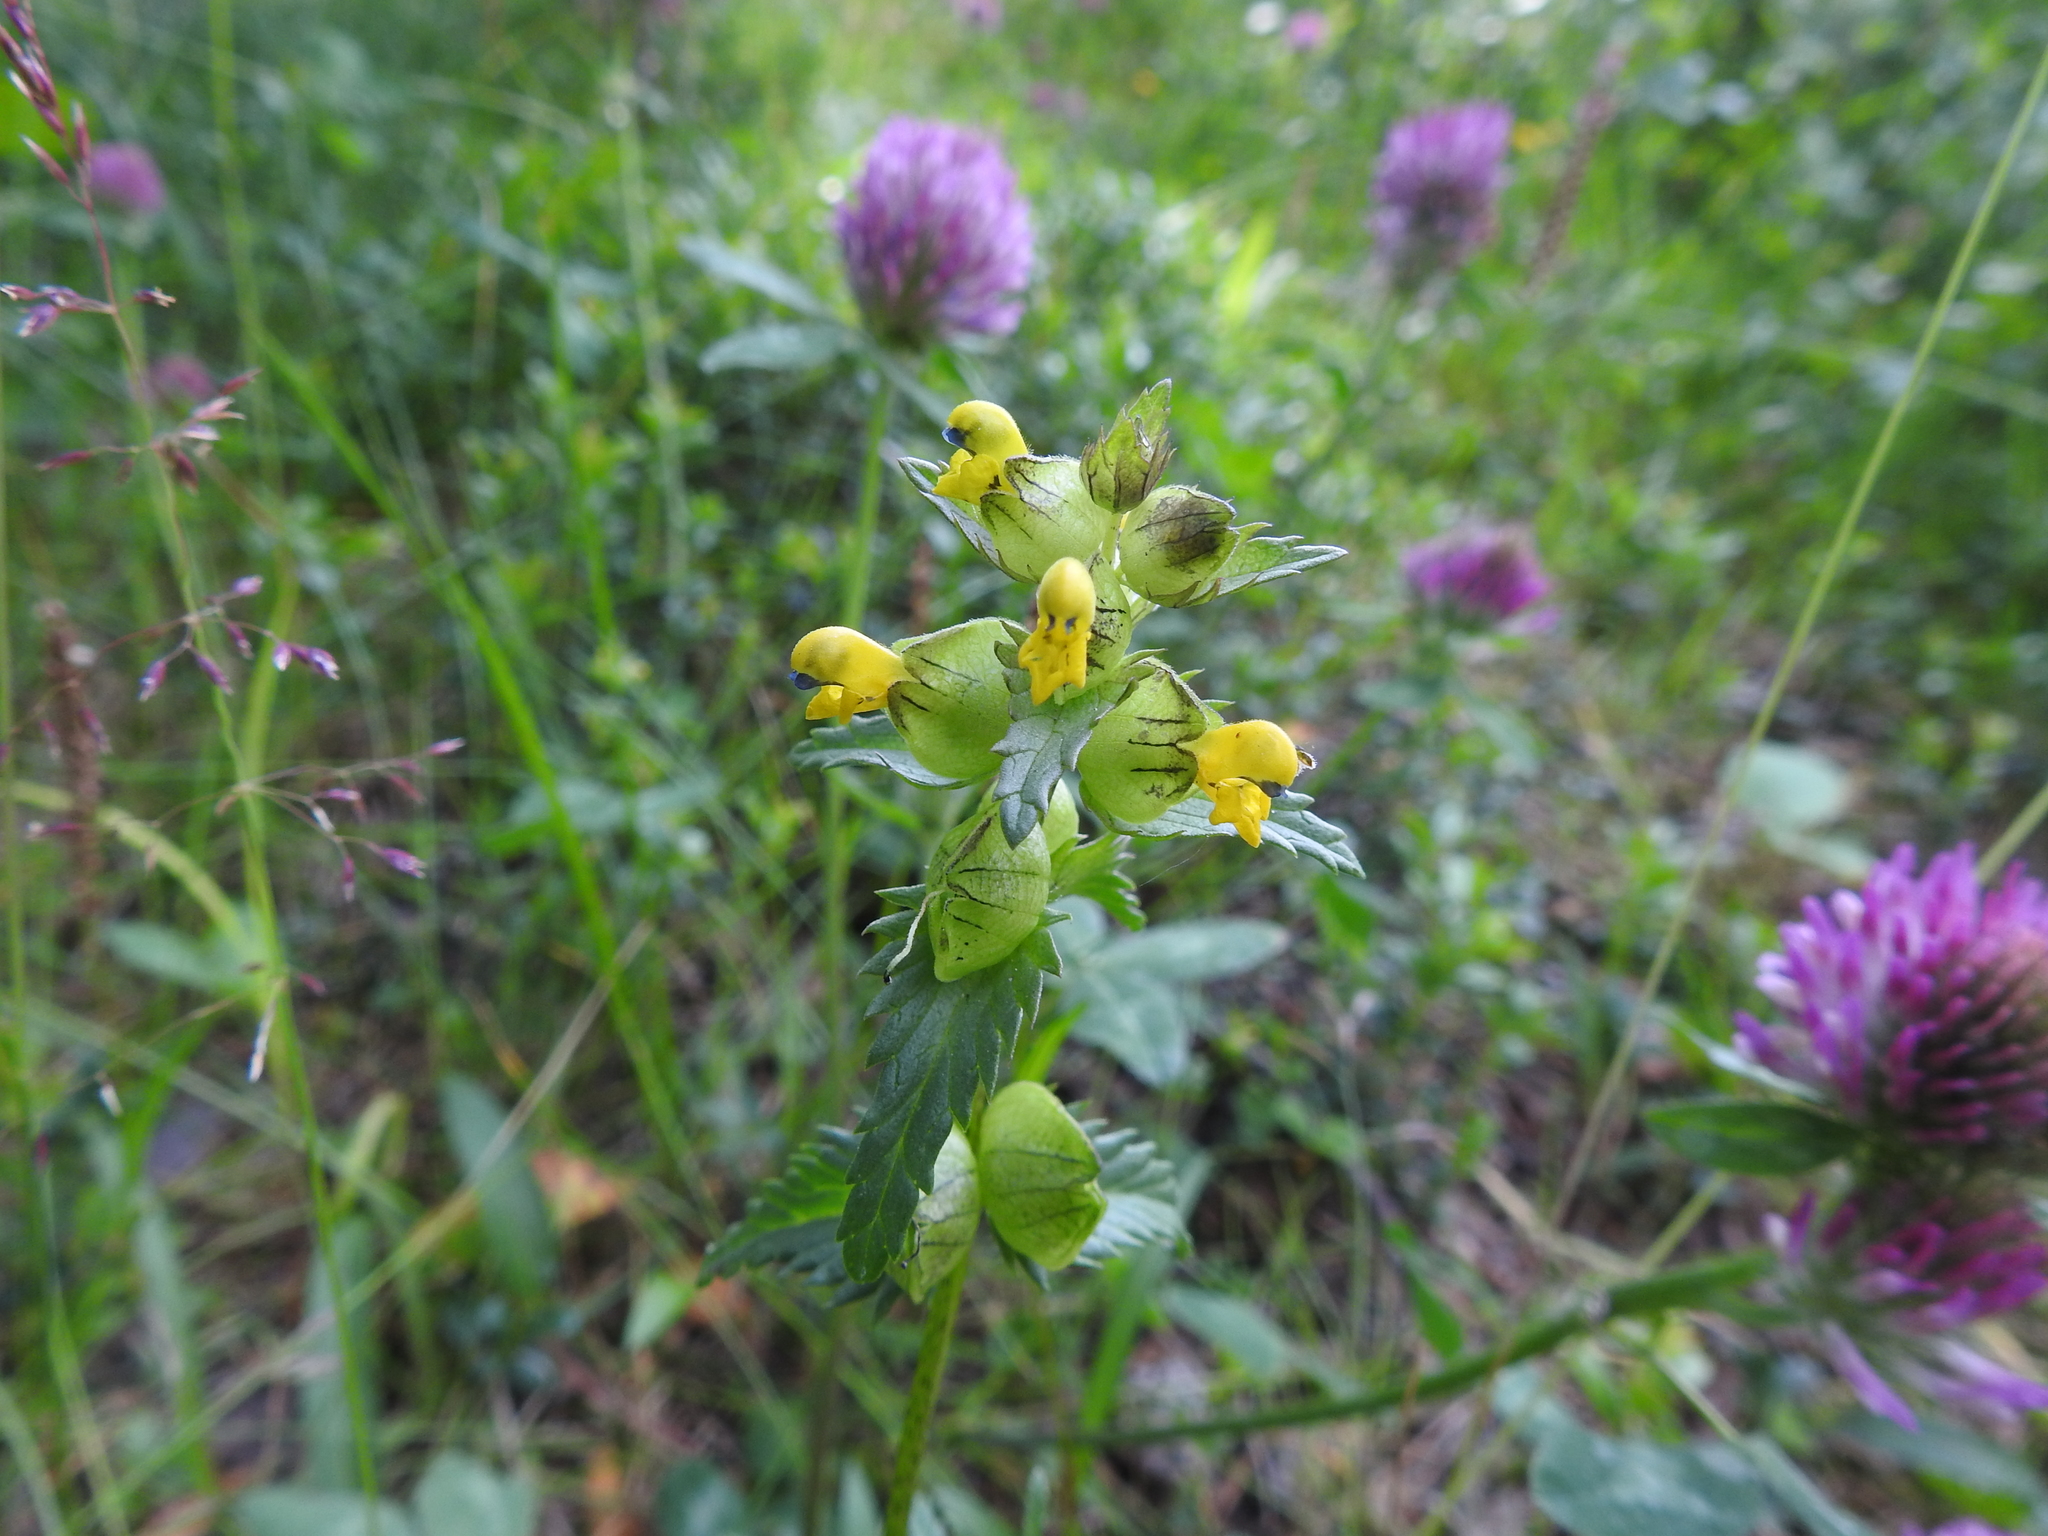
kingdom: Plantae
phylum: Tracheophyta
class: Magnoliopsida
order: Lamiales
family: Orobanchaceae
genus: Rhinanthus
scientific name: Rhinanthus minor
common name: Yellow-rattle
